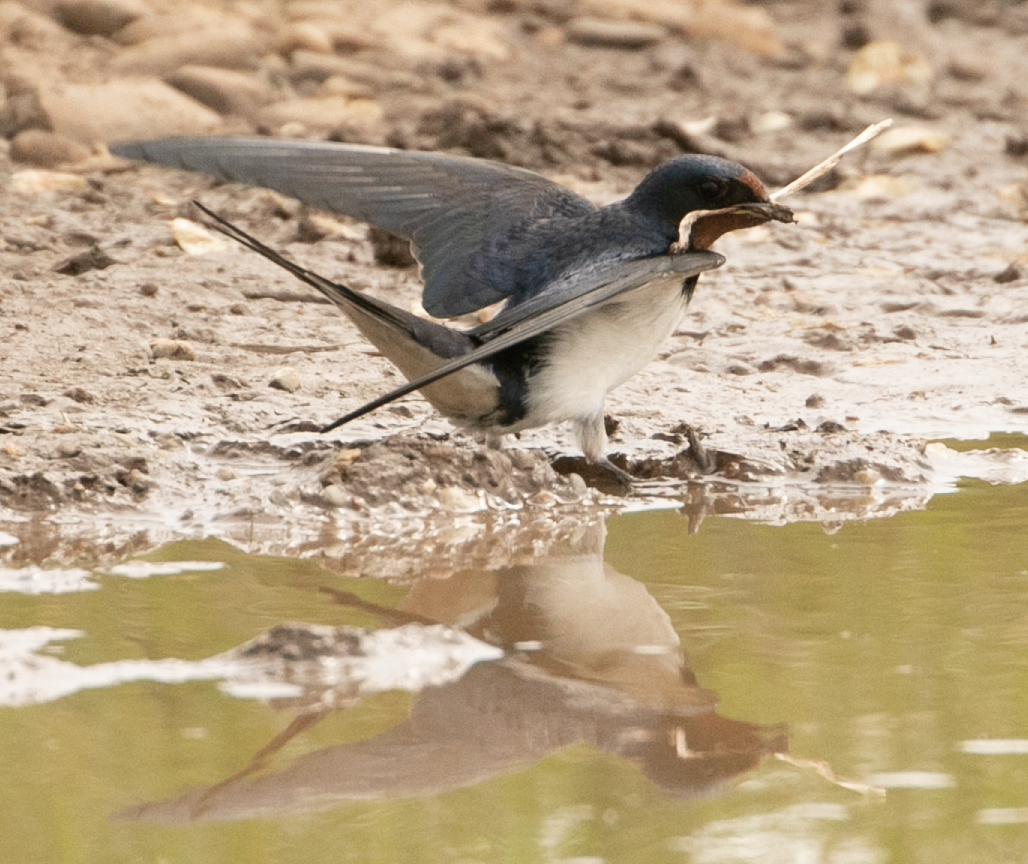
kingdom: Animalia
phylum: Chordata
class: Aves
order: Passeriformes
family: Hirundinidae
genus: Hirundo
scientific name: Hirundo rustica
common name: Barn swallow
